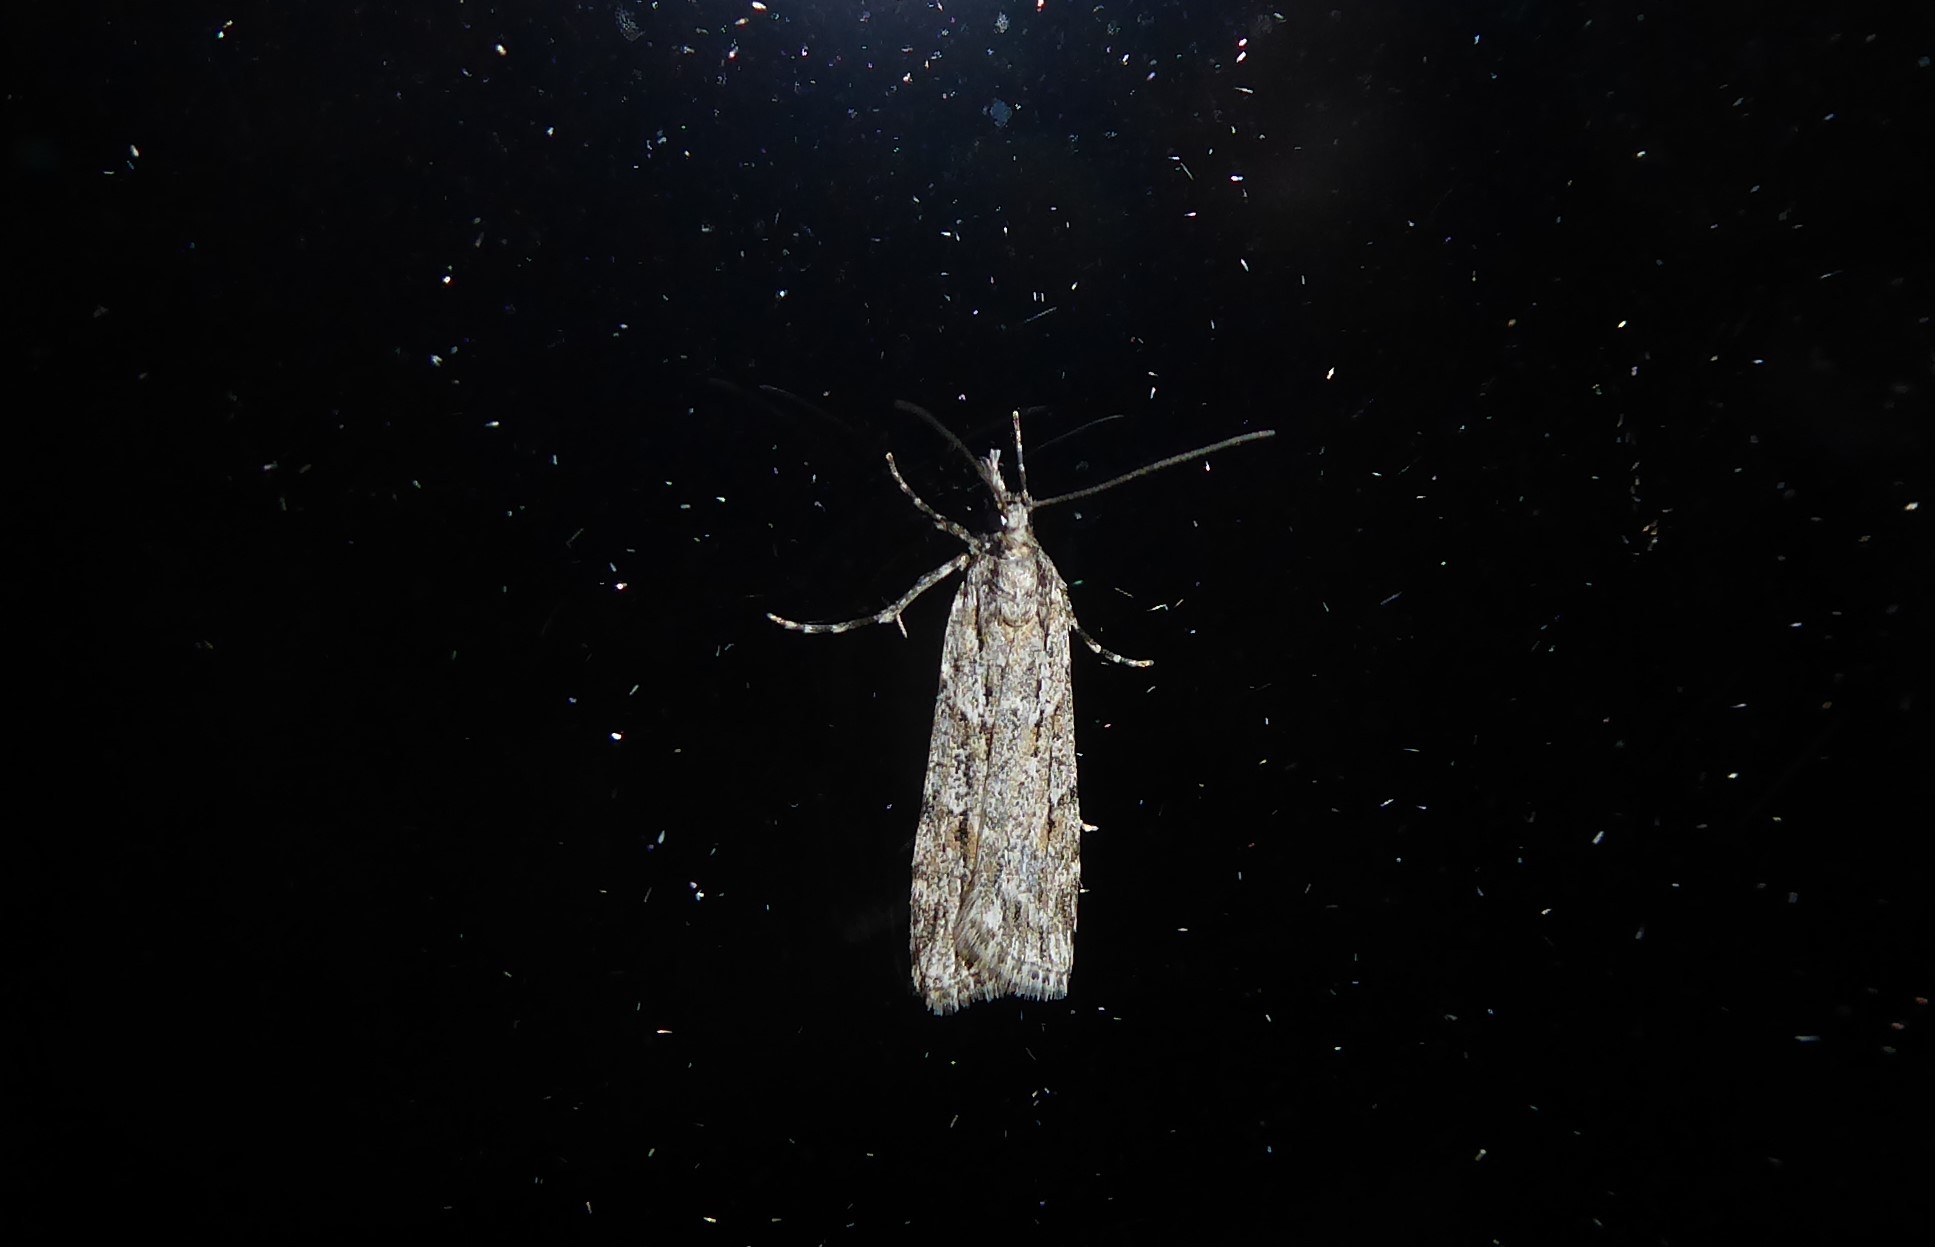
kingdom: Animalia
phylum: Arthropoda
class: Insecta
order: Lepidoptera
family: Crambidae
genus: Scoparia
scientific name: Scoparia chalicodes
